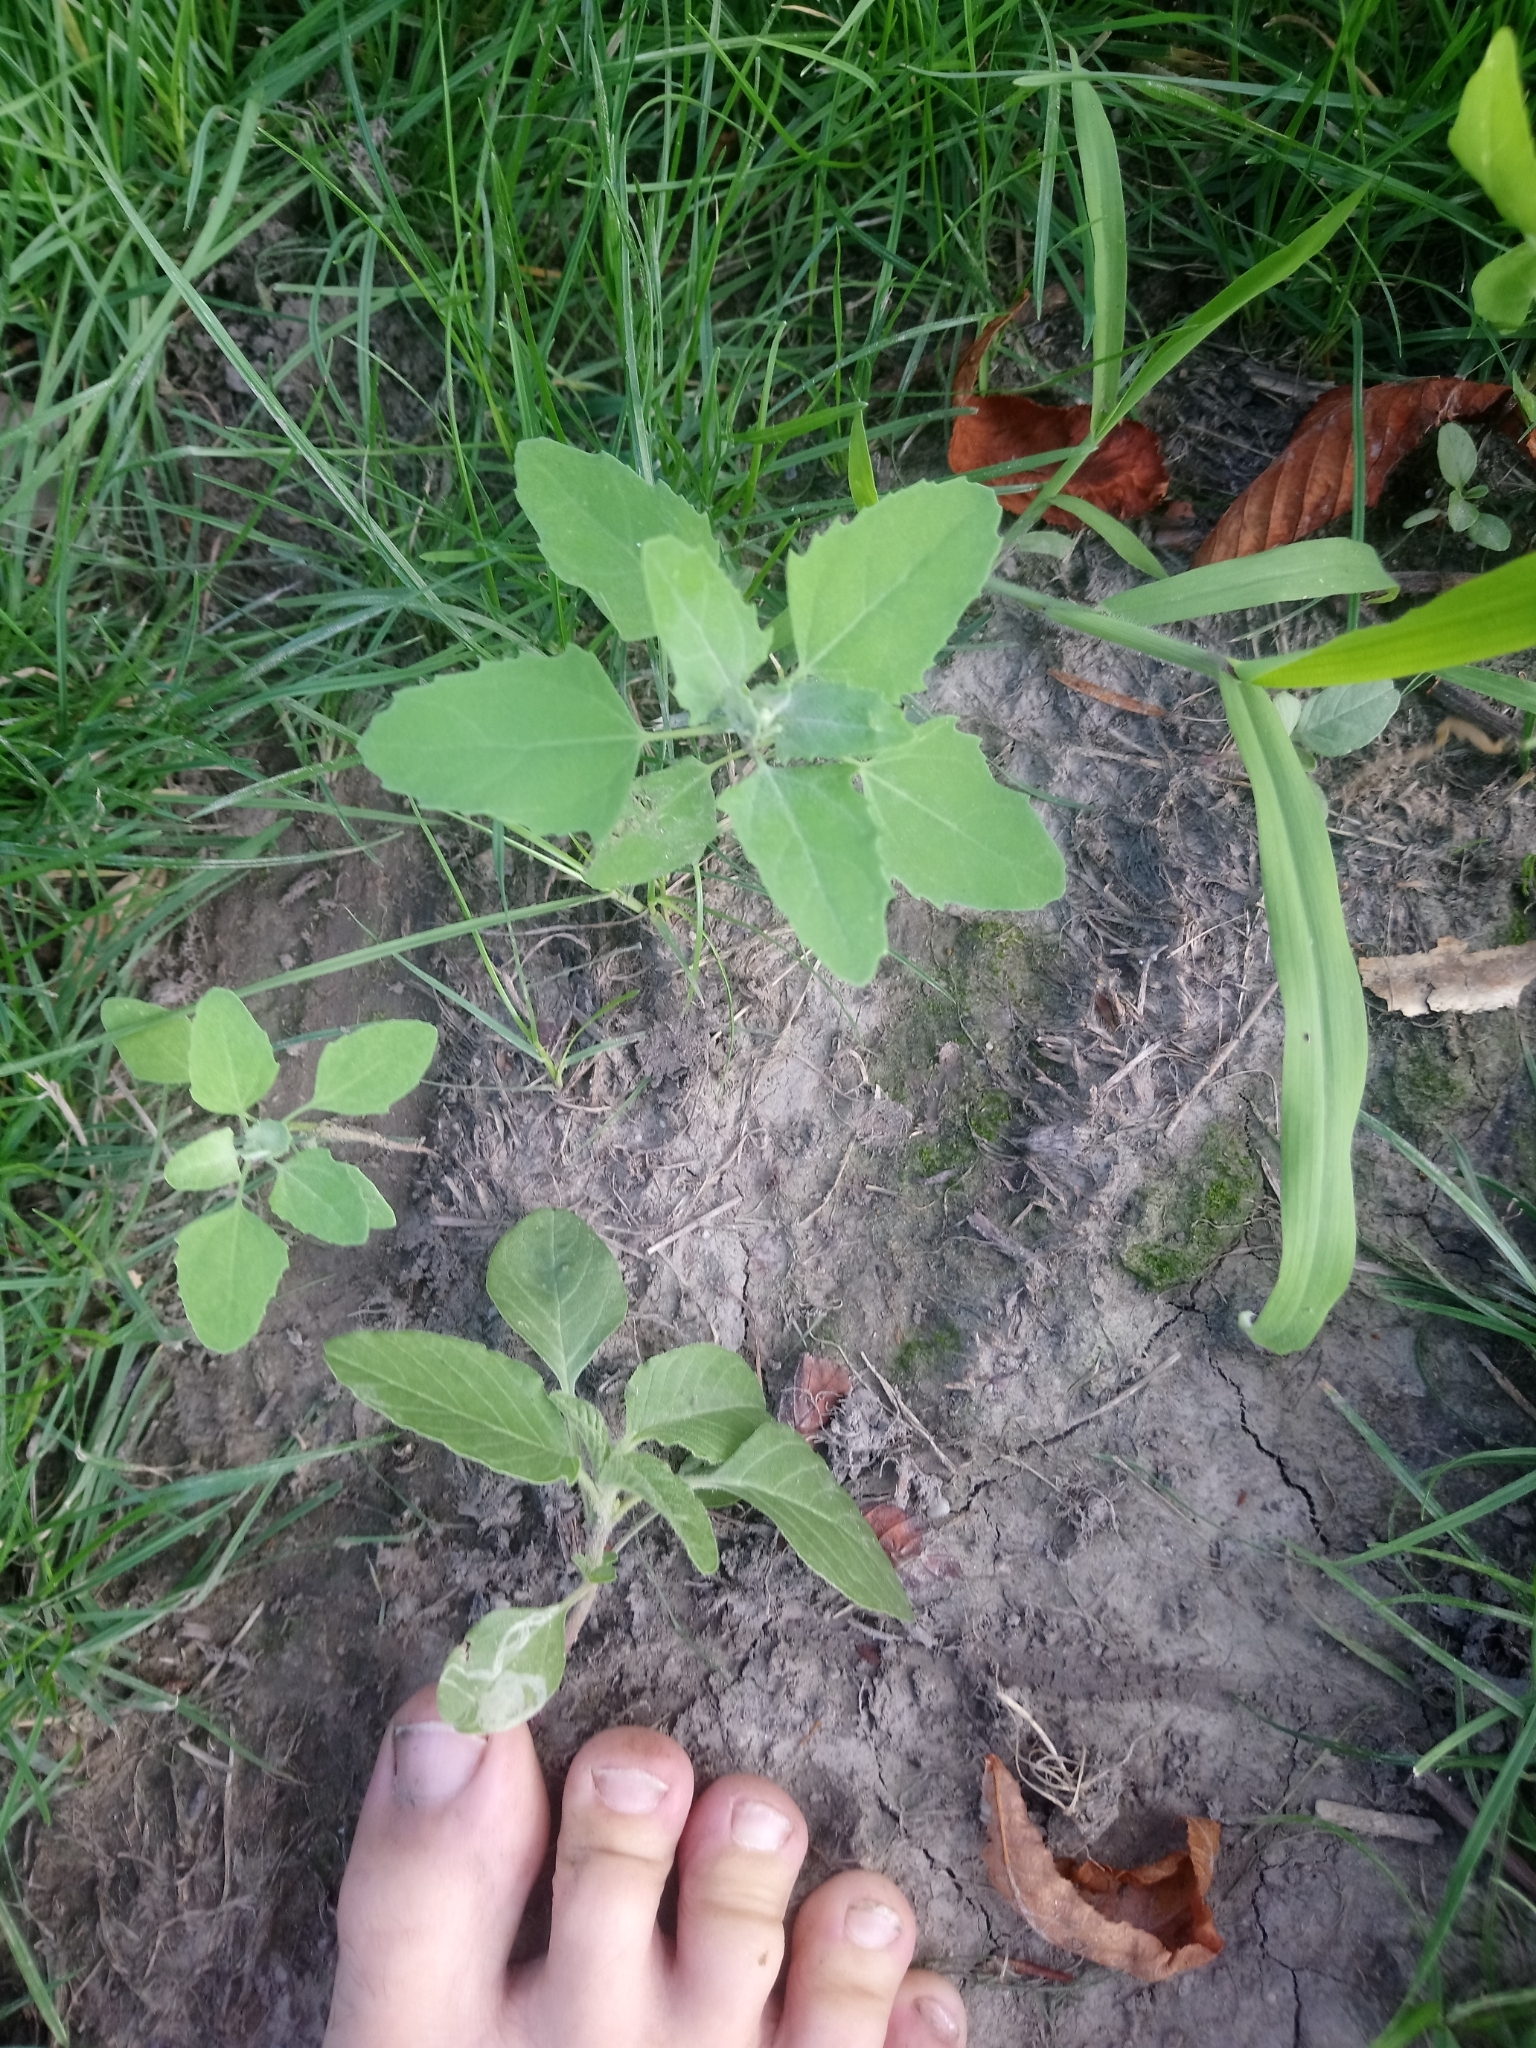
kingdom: Plantae
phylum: Tracheophyta
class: Magnoliopsida
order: Caryophyllales
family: Amaranthaceae
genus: Chenopodium
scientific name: Chenopodium album
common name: Fat-hen
